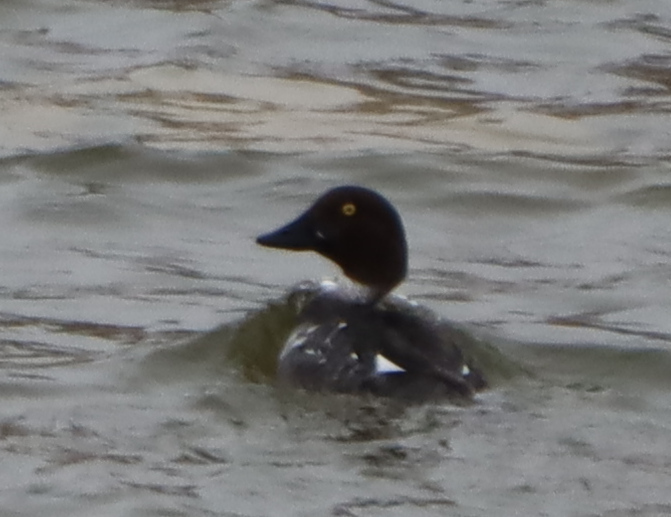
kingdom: Animalia
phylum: Chordata
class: Aves
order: Anseriformes
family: Anatidae
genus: Bucephala
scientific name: Bucephala clangula
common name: Common goldeneye
